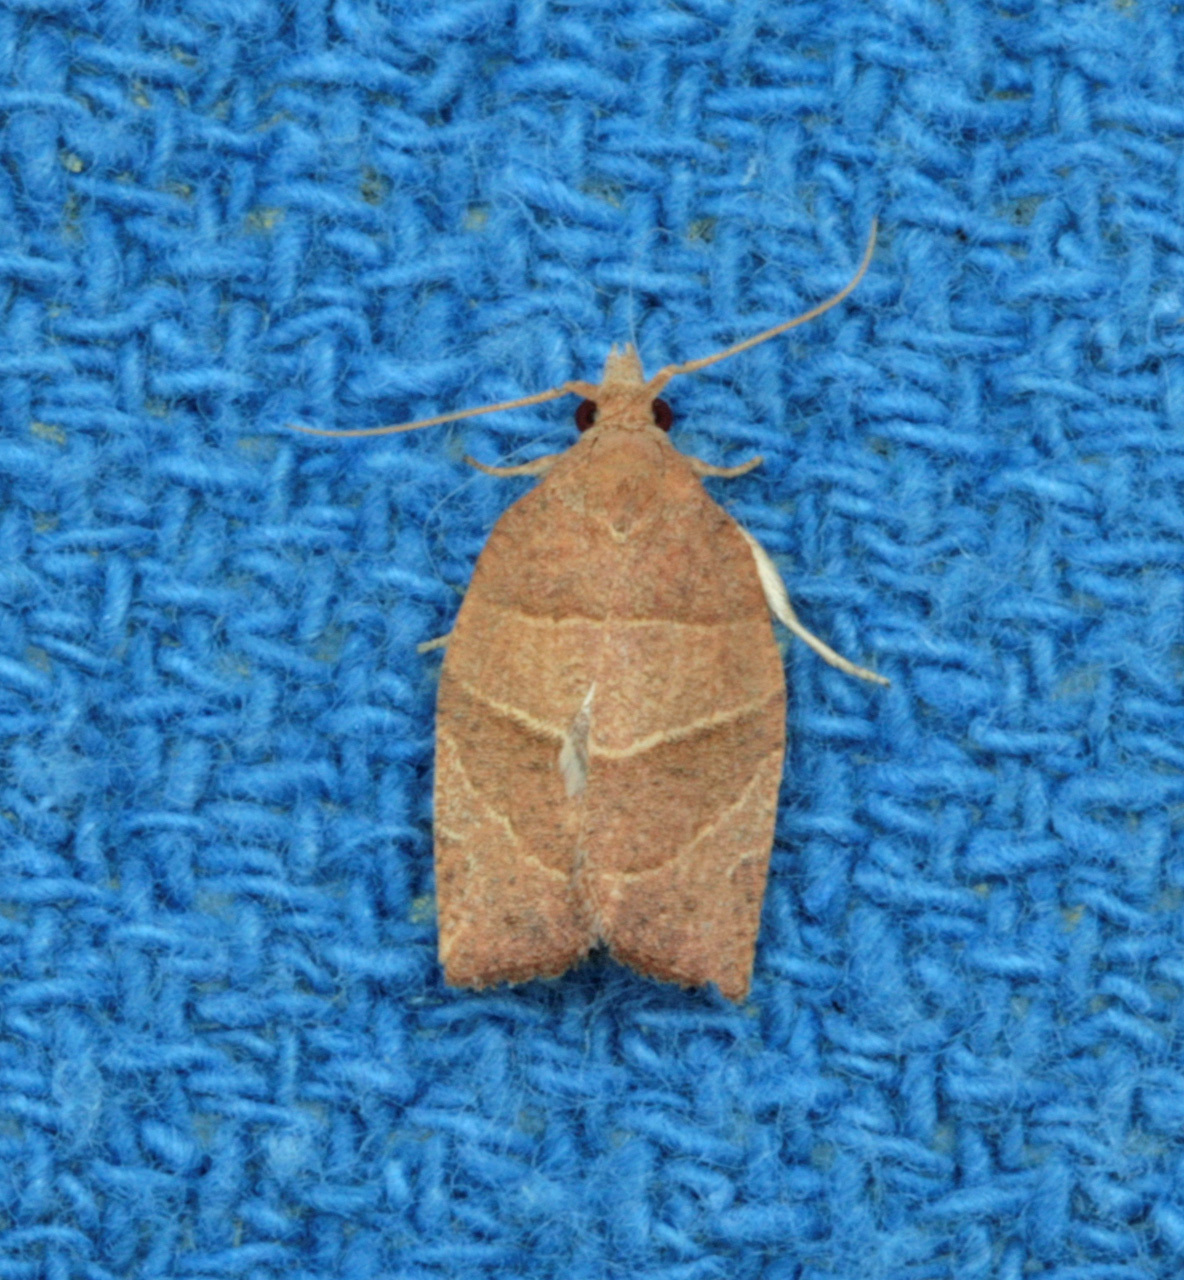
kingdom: Animalia
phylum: Arthropoda
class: Insecta
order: Lepidoptera
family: Tortricidae
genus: Pandemis
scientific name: Pandemis limitata
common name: Three-lined leafroller moth
